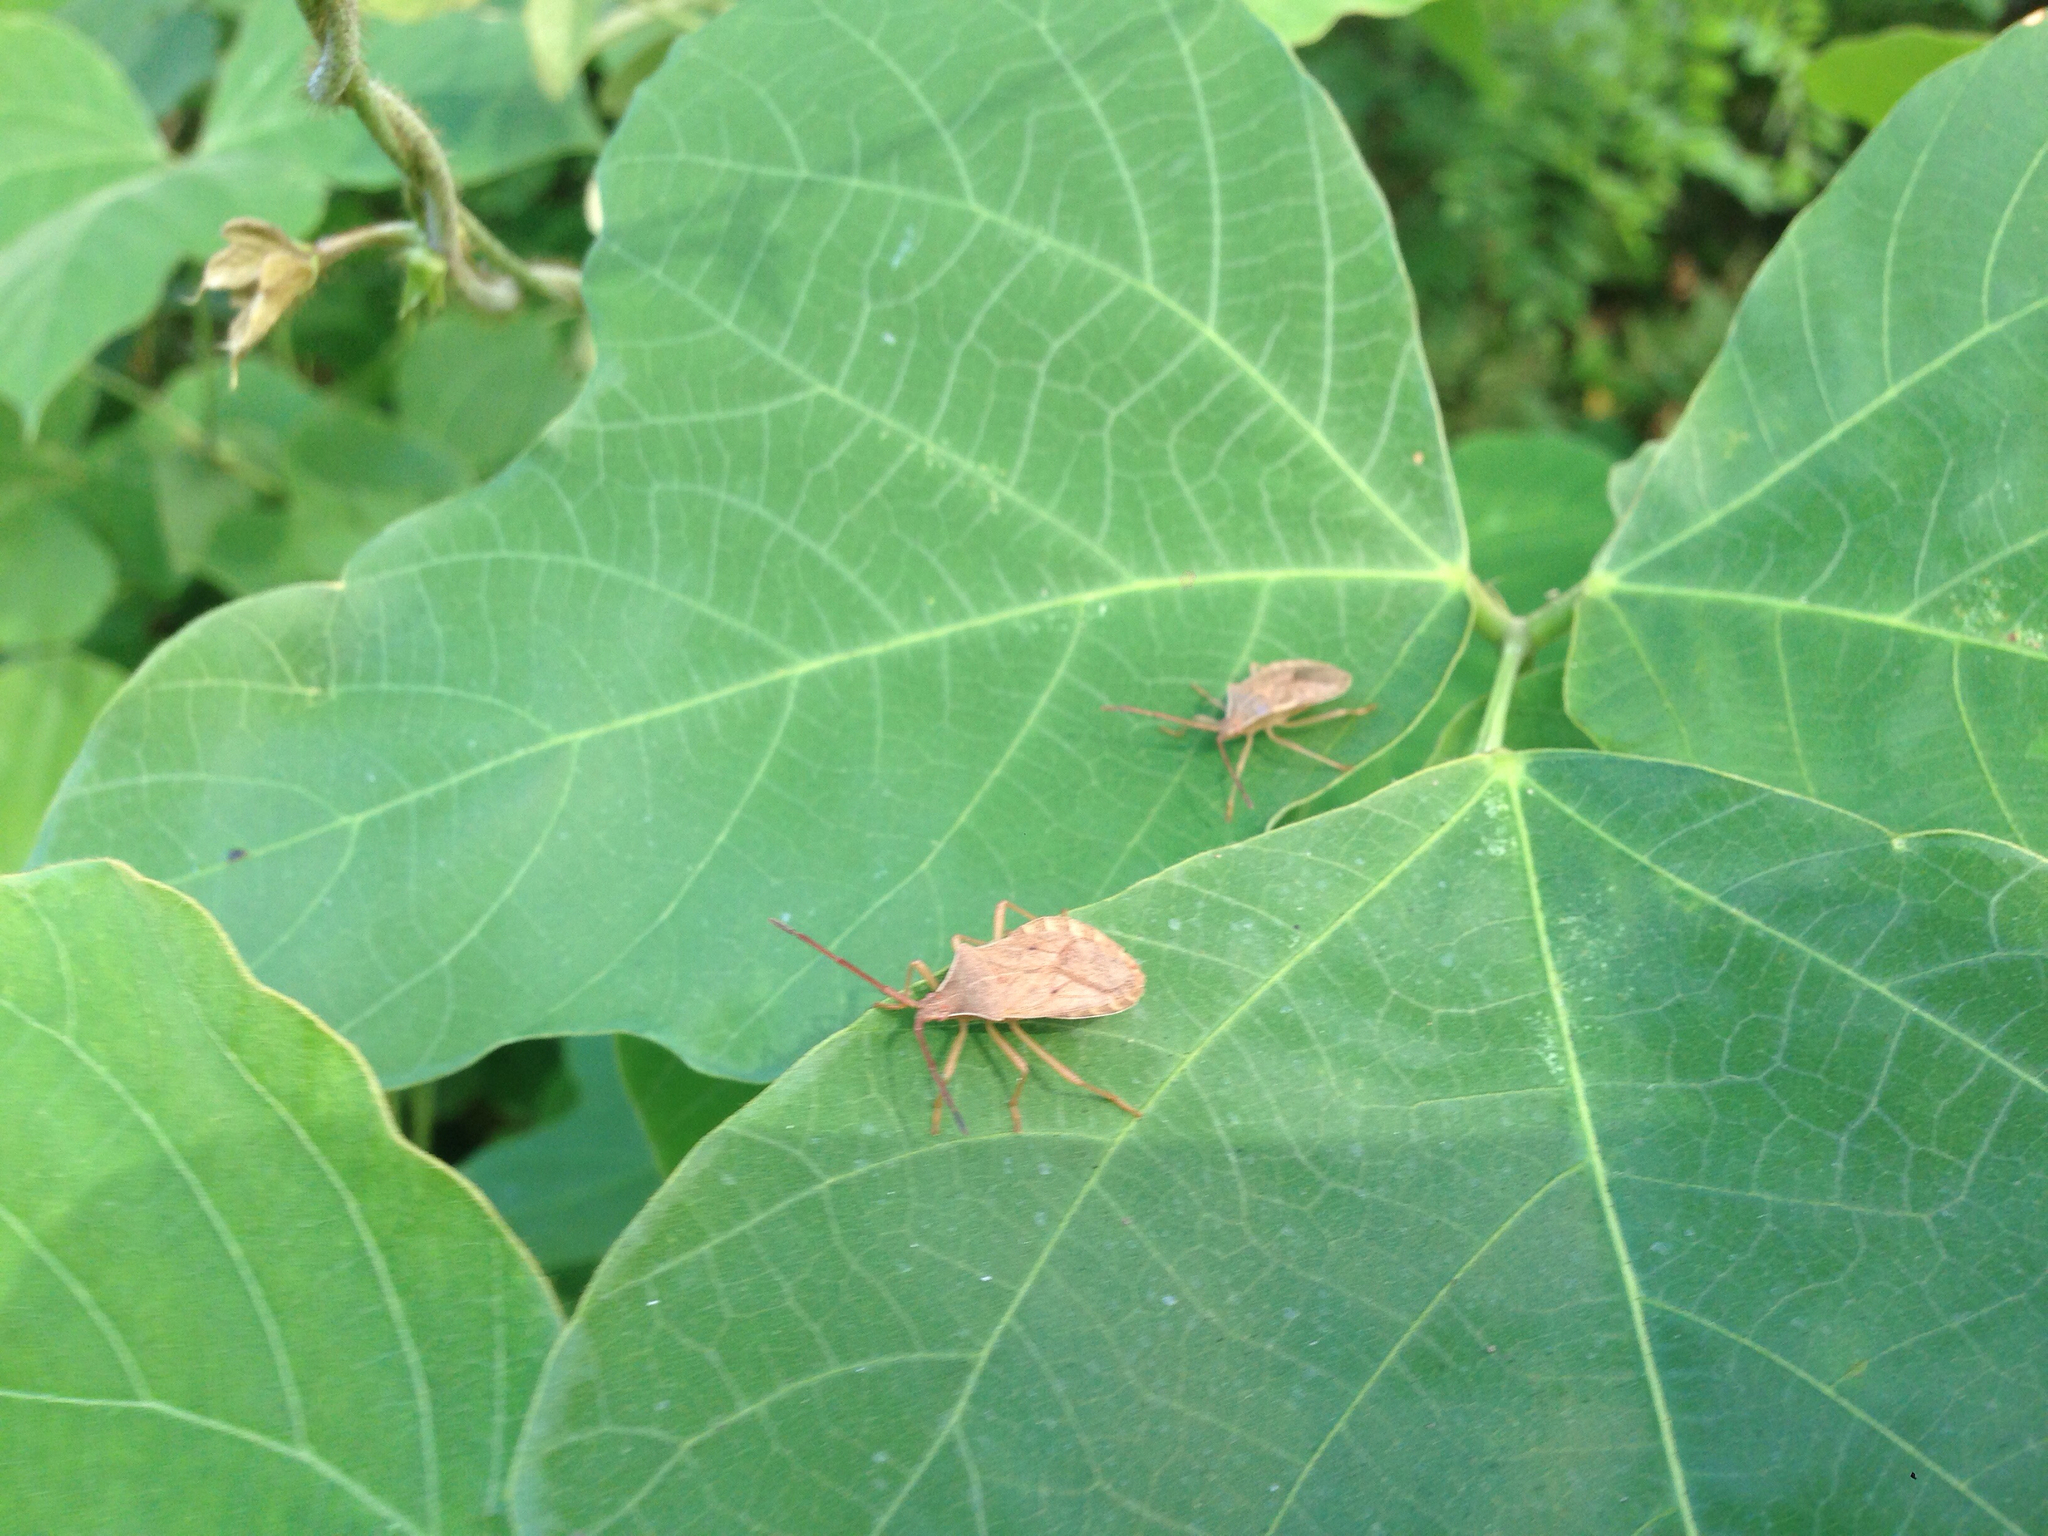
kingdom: Animalia
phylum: Arthropoda
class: Insecta
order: Hemiptera
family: Coreidae
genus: Homoeocerus
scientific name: Homoeocerus dilatatus
